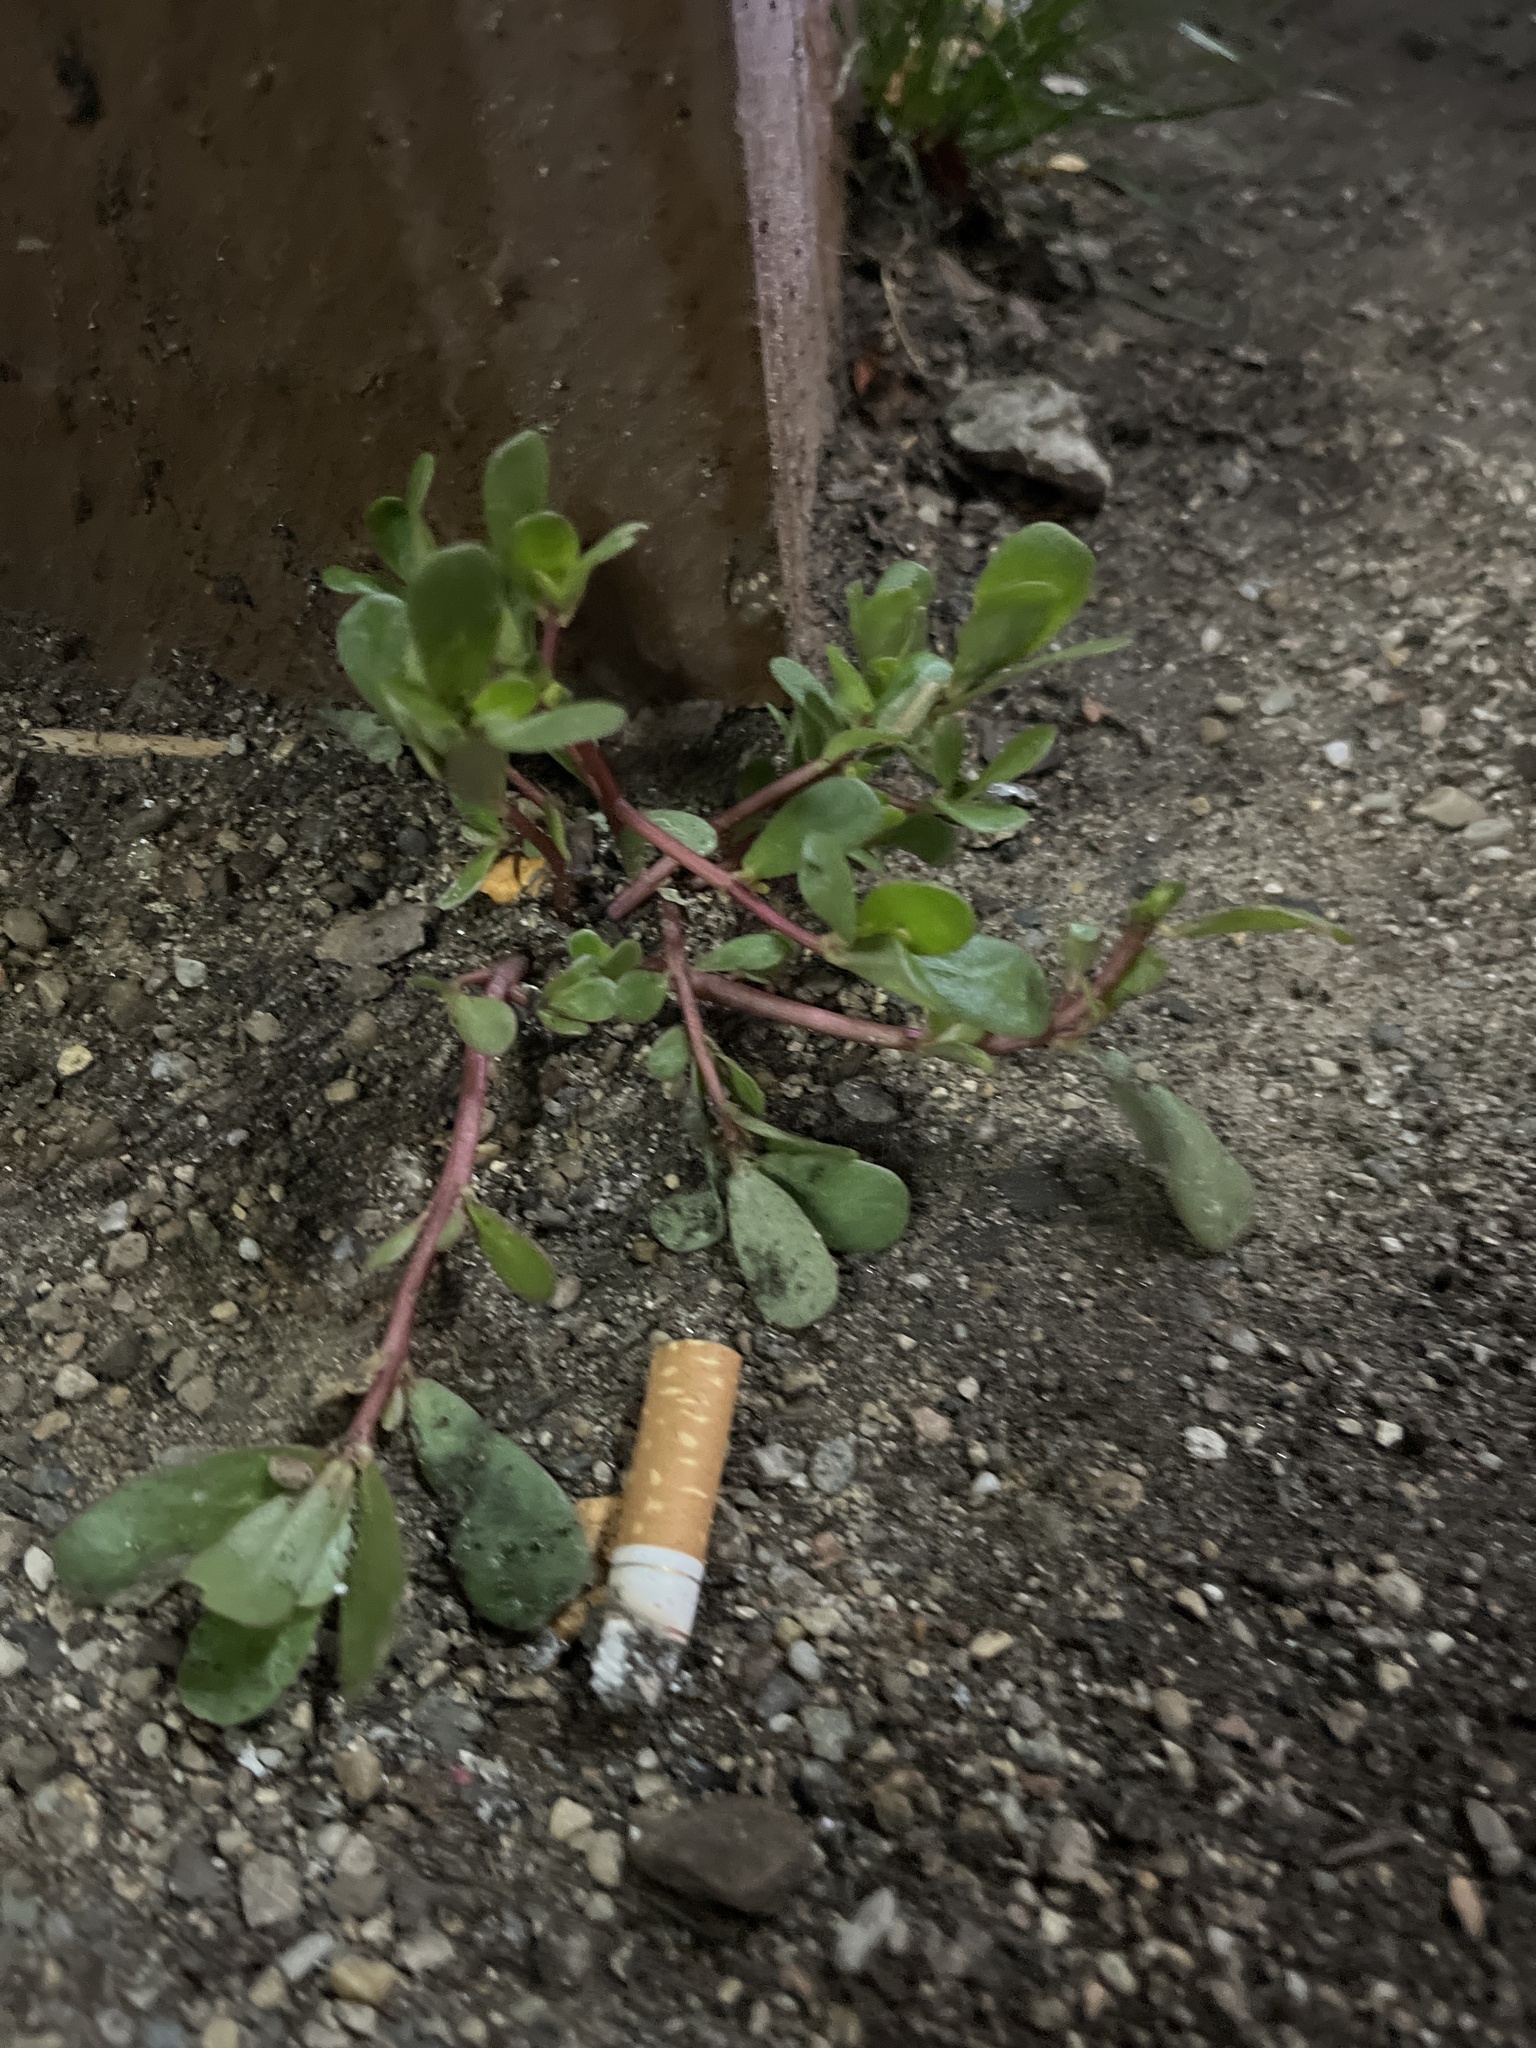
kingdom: Plantae
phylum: Tracheophyta
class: Magnoliopsida
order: Caryophyllales
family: Portulacaceae
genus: Portulaca
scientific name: Portulaca oleracea
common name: Common purslane
